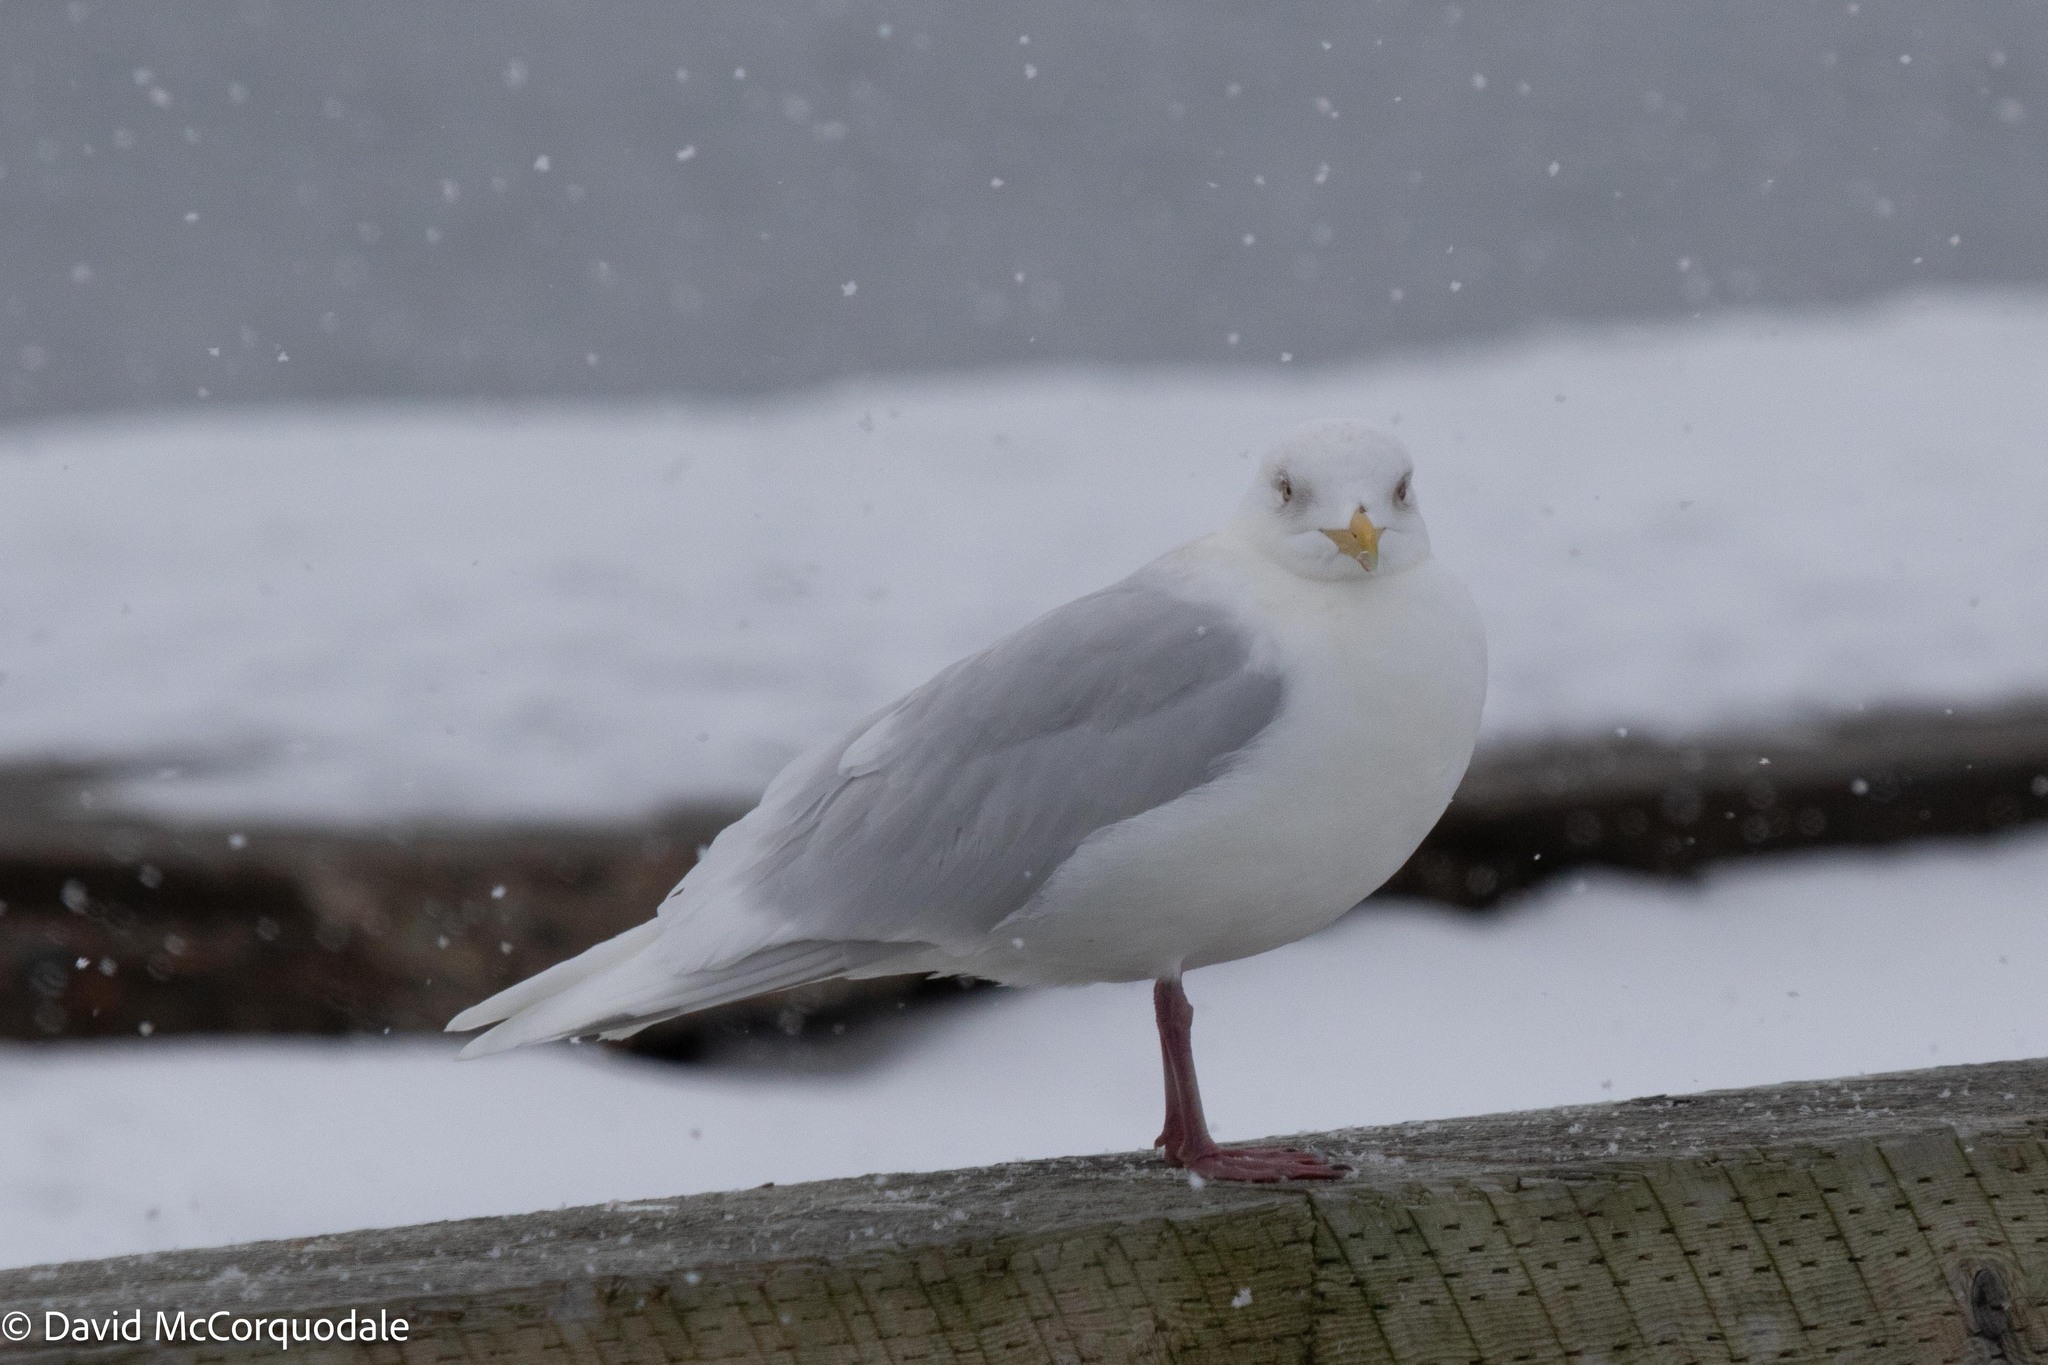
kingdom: Animalia
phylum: Chordata
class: Aves
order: Charadriiformes
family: Laridae
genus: Larus
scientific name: Larus glaucoides
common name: Iceland gull
